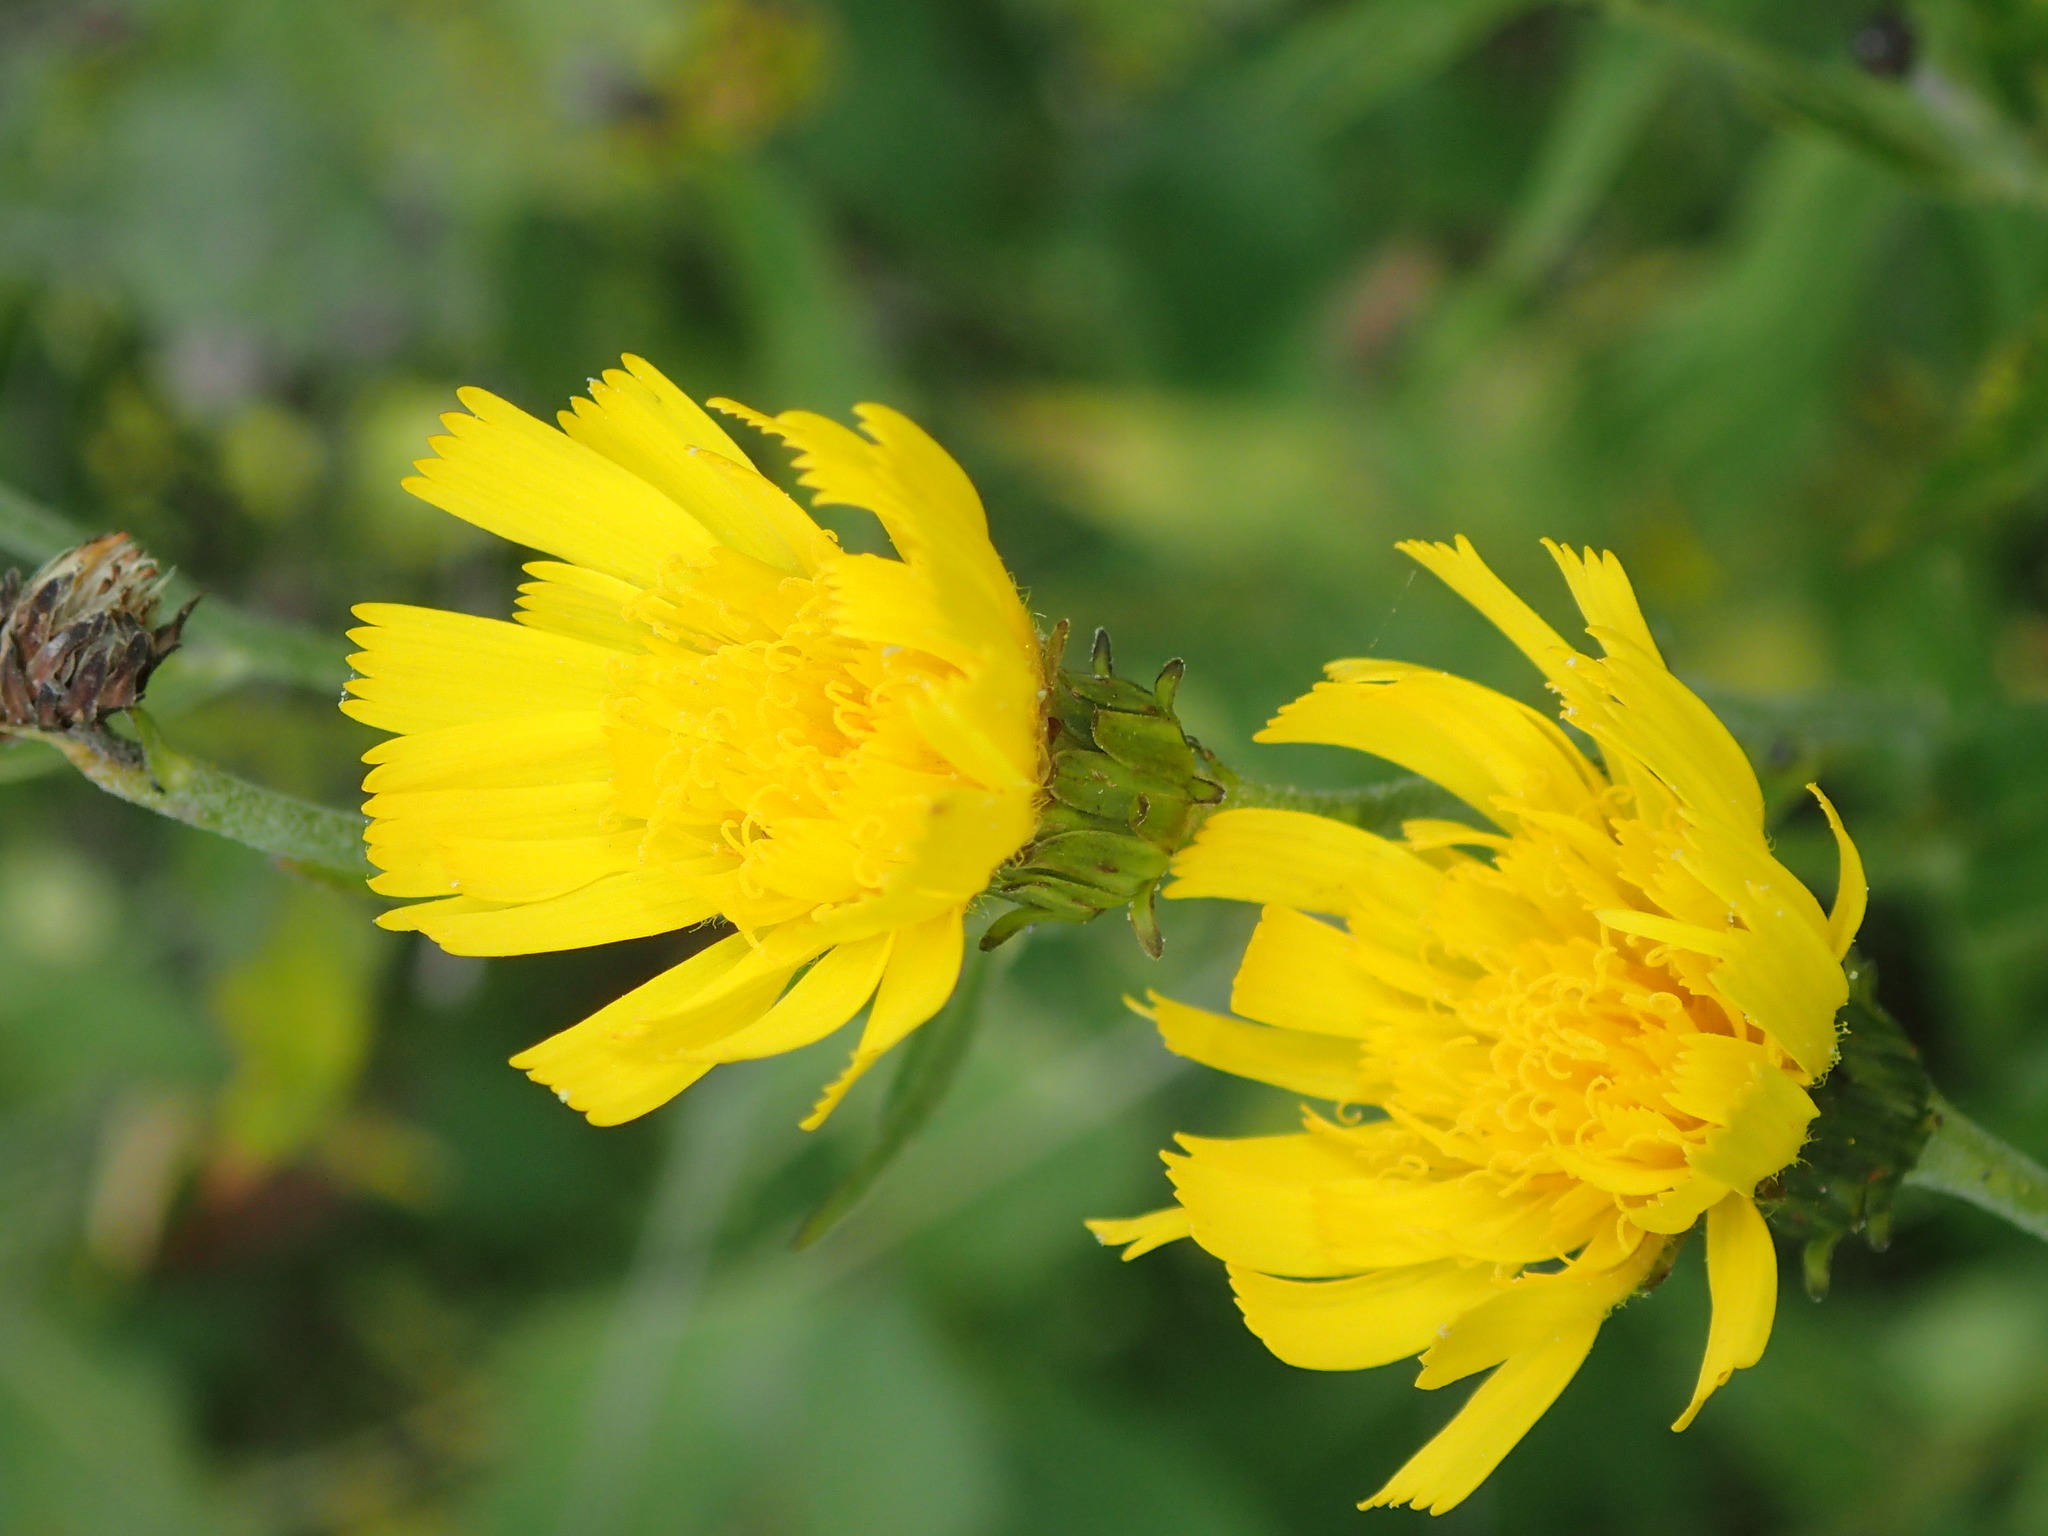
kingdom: Plantae
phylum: Tracheophyta
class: Magnoliopsida
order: Asterales
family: Asteraceae
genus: Hieracium
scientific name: Hieracium umbellatum
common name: Northern hawkweed
